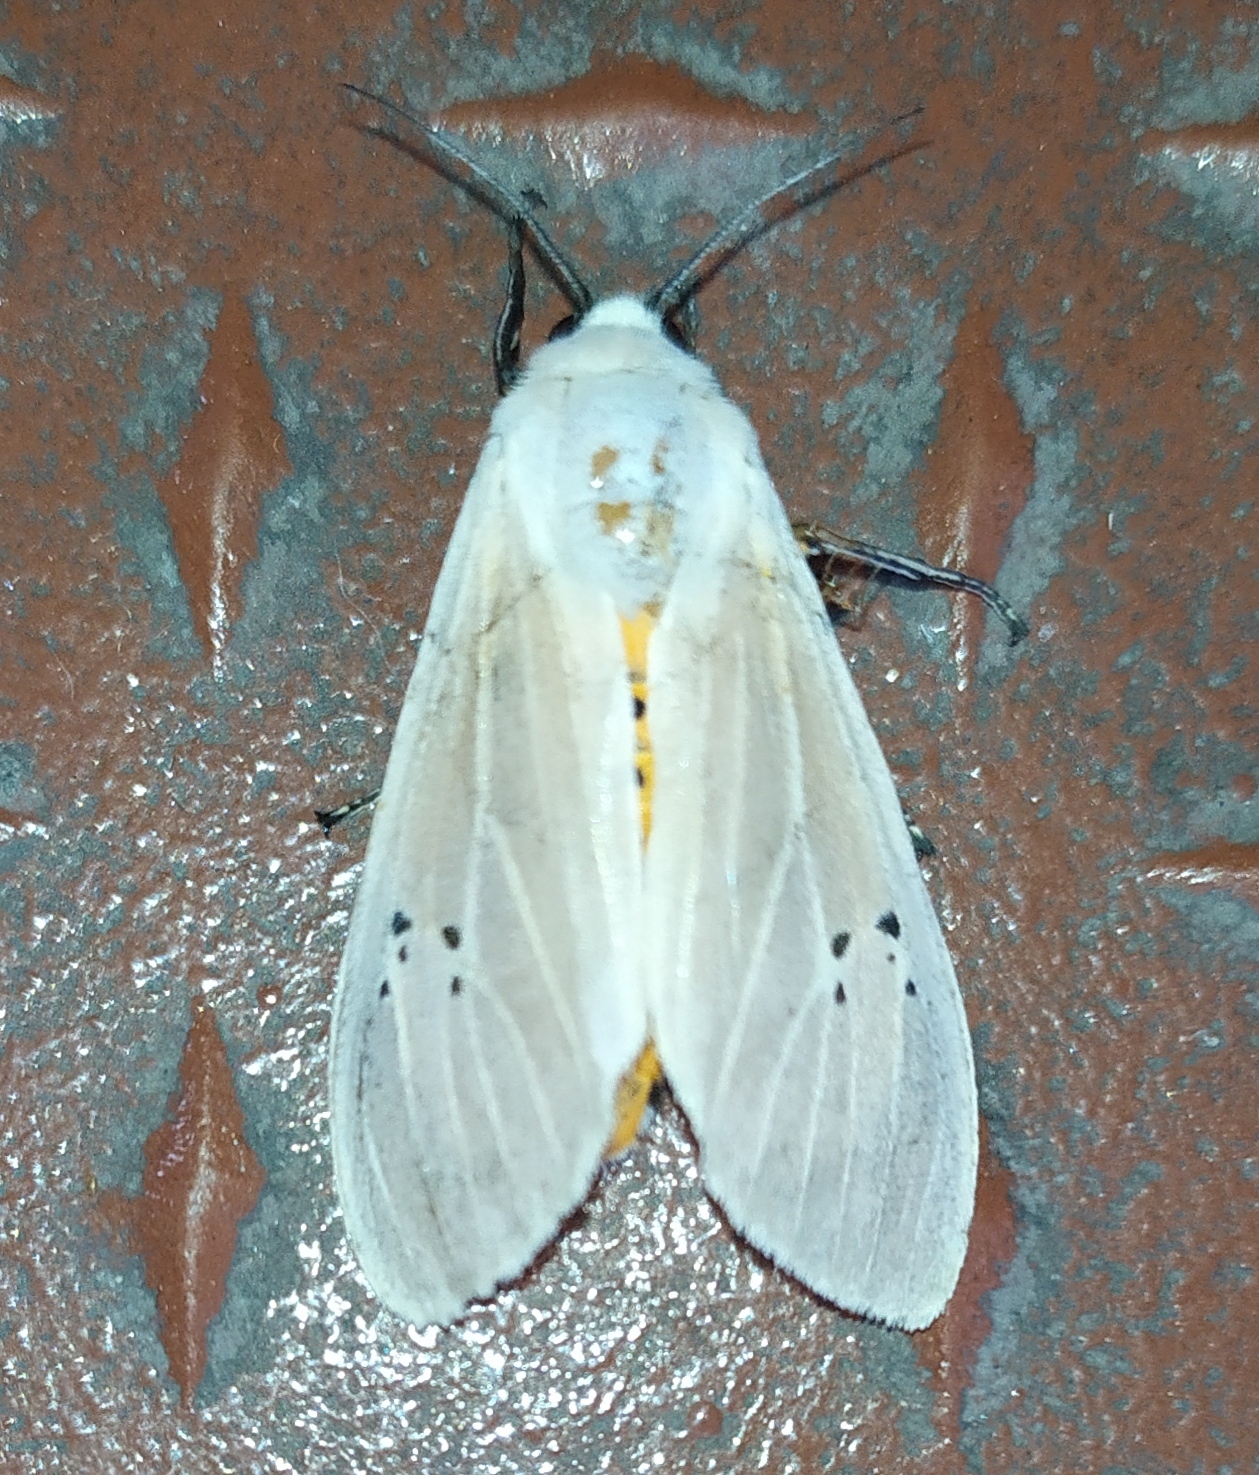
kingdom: Animalia
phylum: Arthropoda
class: Insecta
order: Lepidoptera
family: Erebidae
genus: Creatonotos
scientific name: Creatonotos transiens
